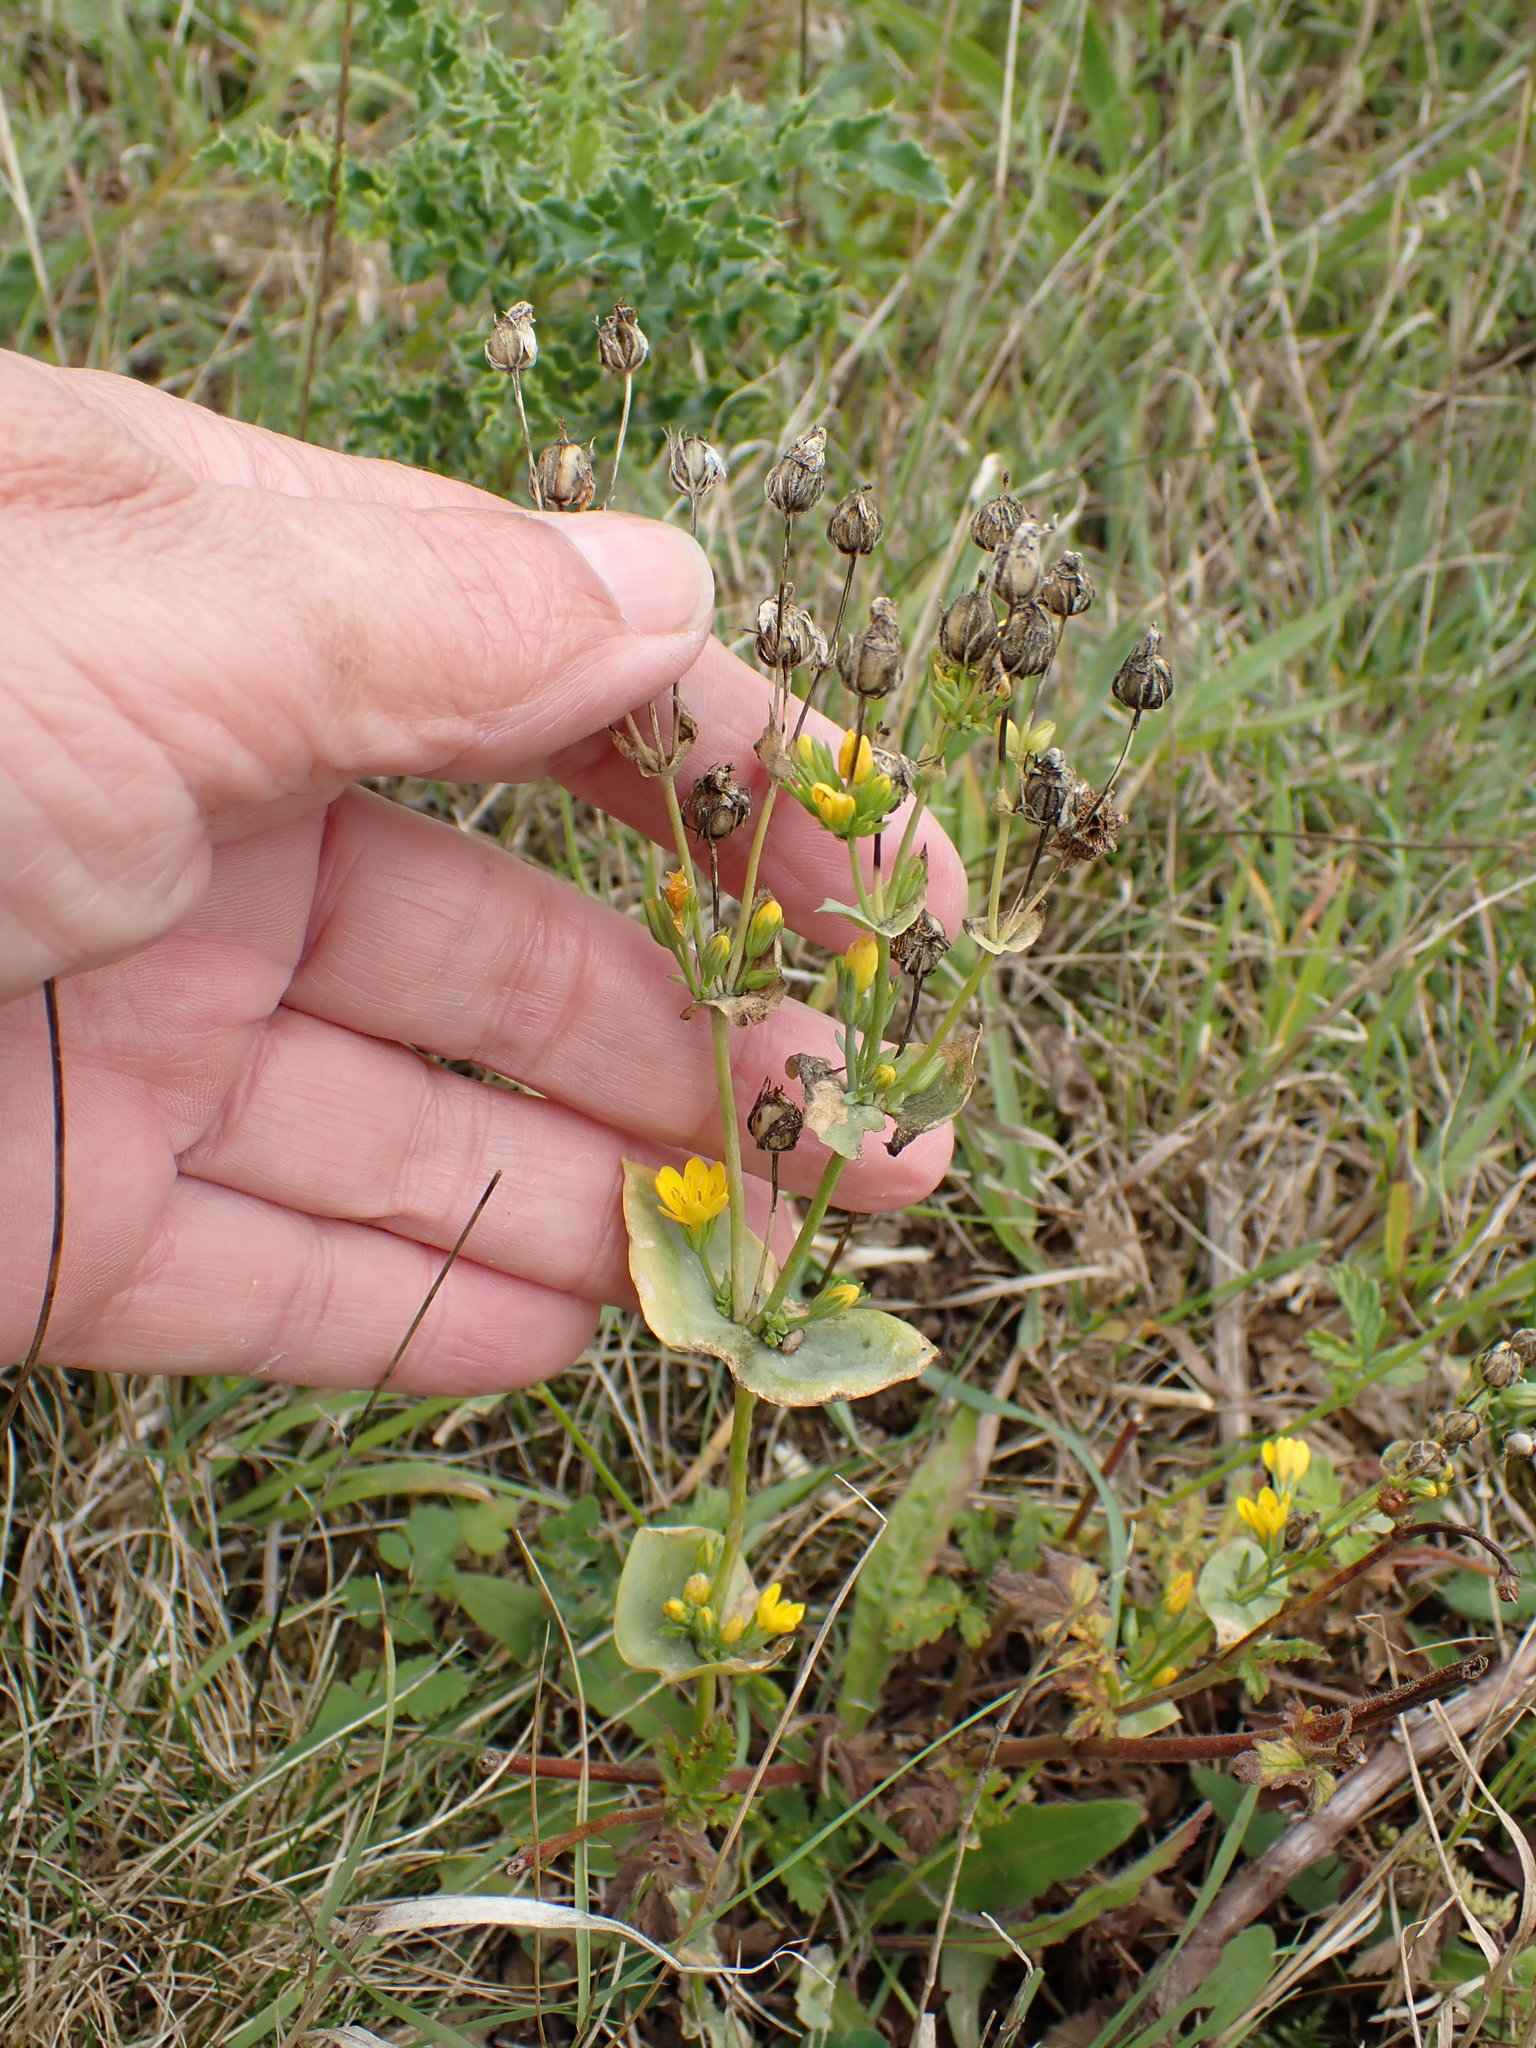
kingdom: Plantae
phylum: Tracheophyta
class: Magnoliopsida
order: Gentianales
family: Gentianaceae
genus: Blackstonia
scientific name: Blackstonia perfoliata
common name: Yellow-wort
